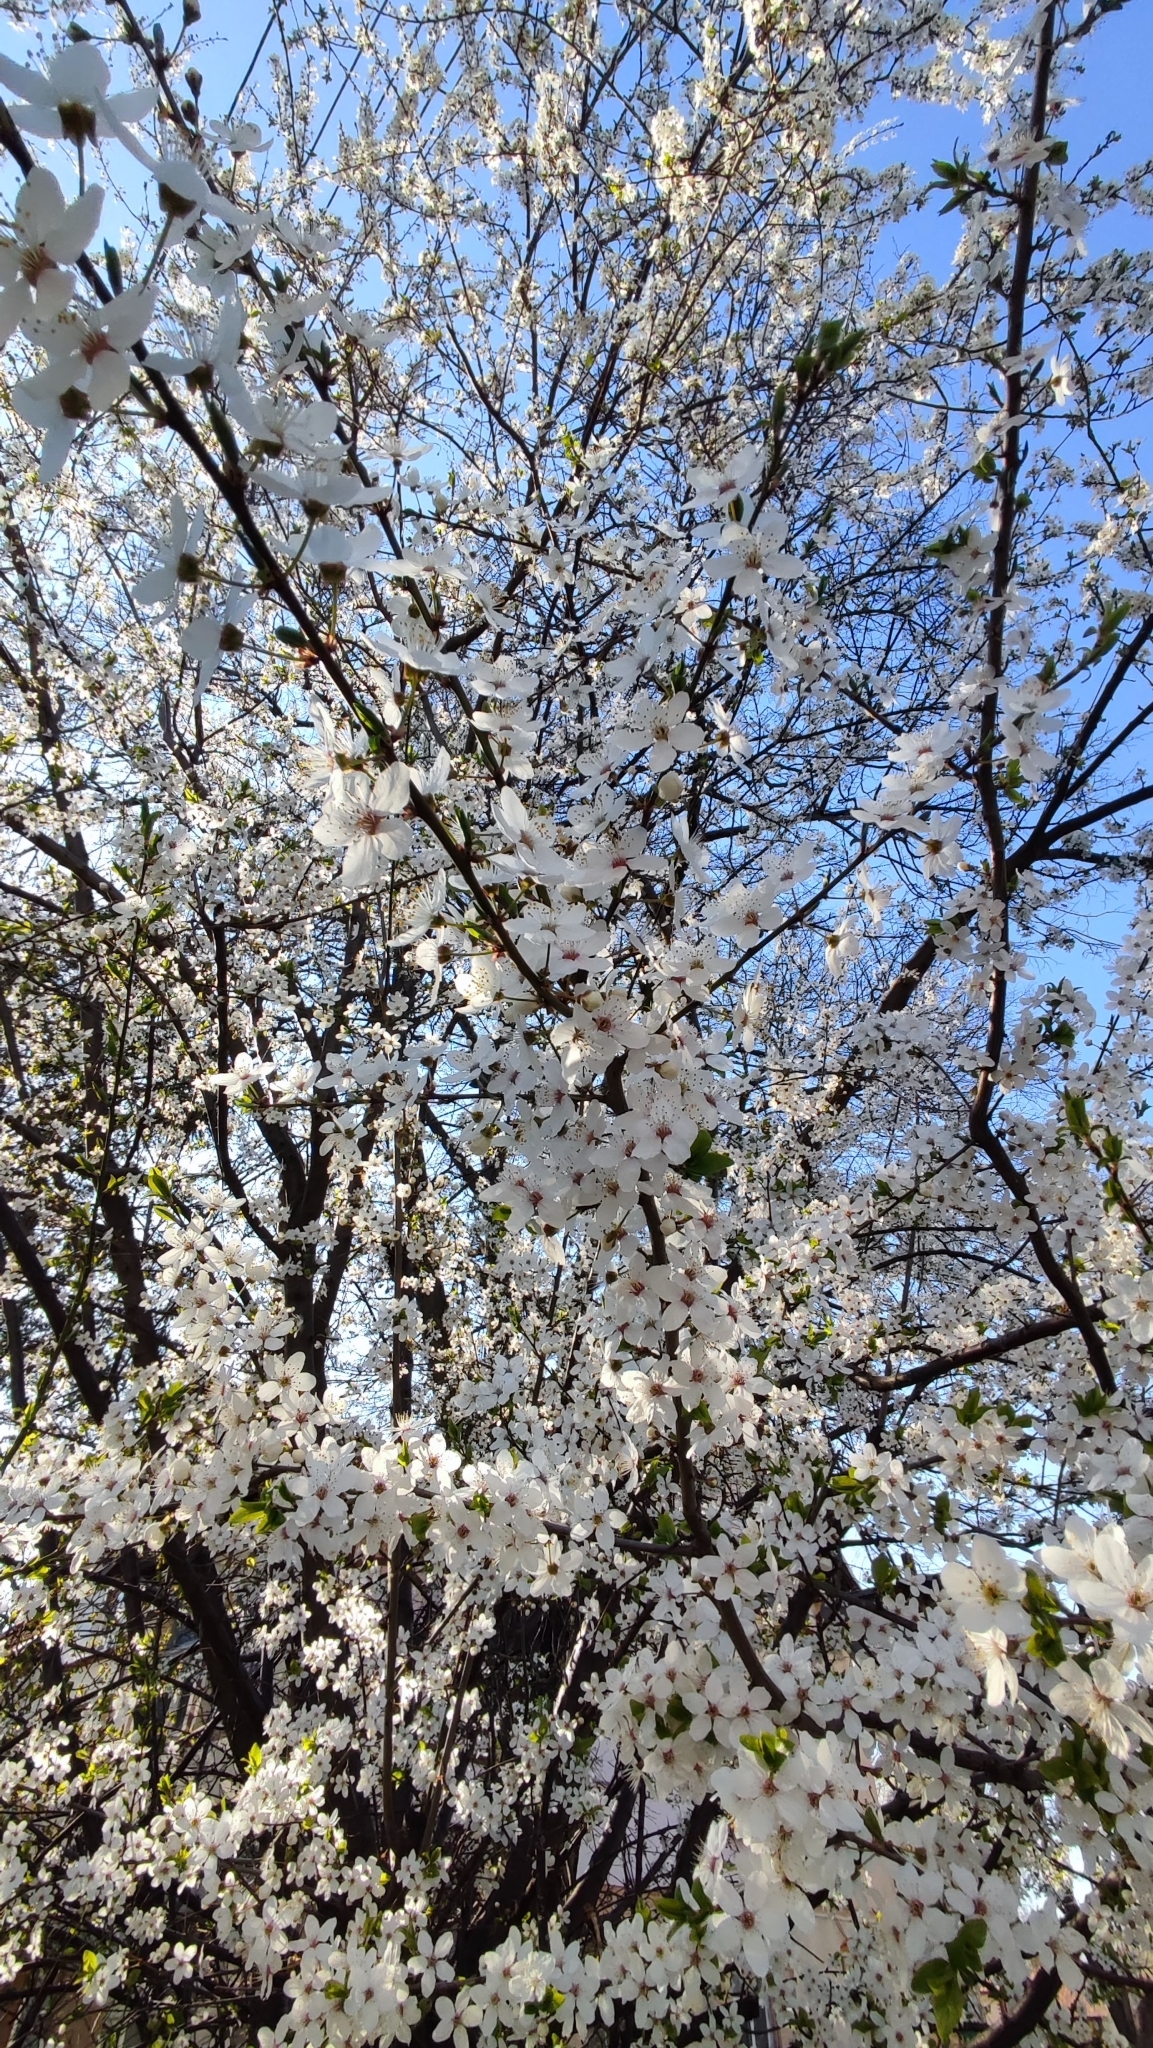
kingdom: Plantae
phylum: Tracheophyta
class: Magnoliopsida
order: Rosales
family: Rosaceae
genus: Prunus
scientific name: Prunus cerasifera
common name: Cherry plum
